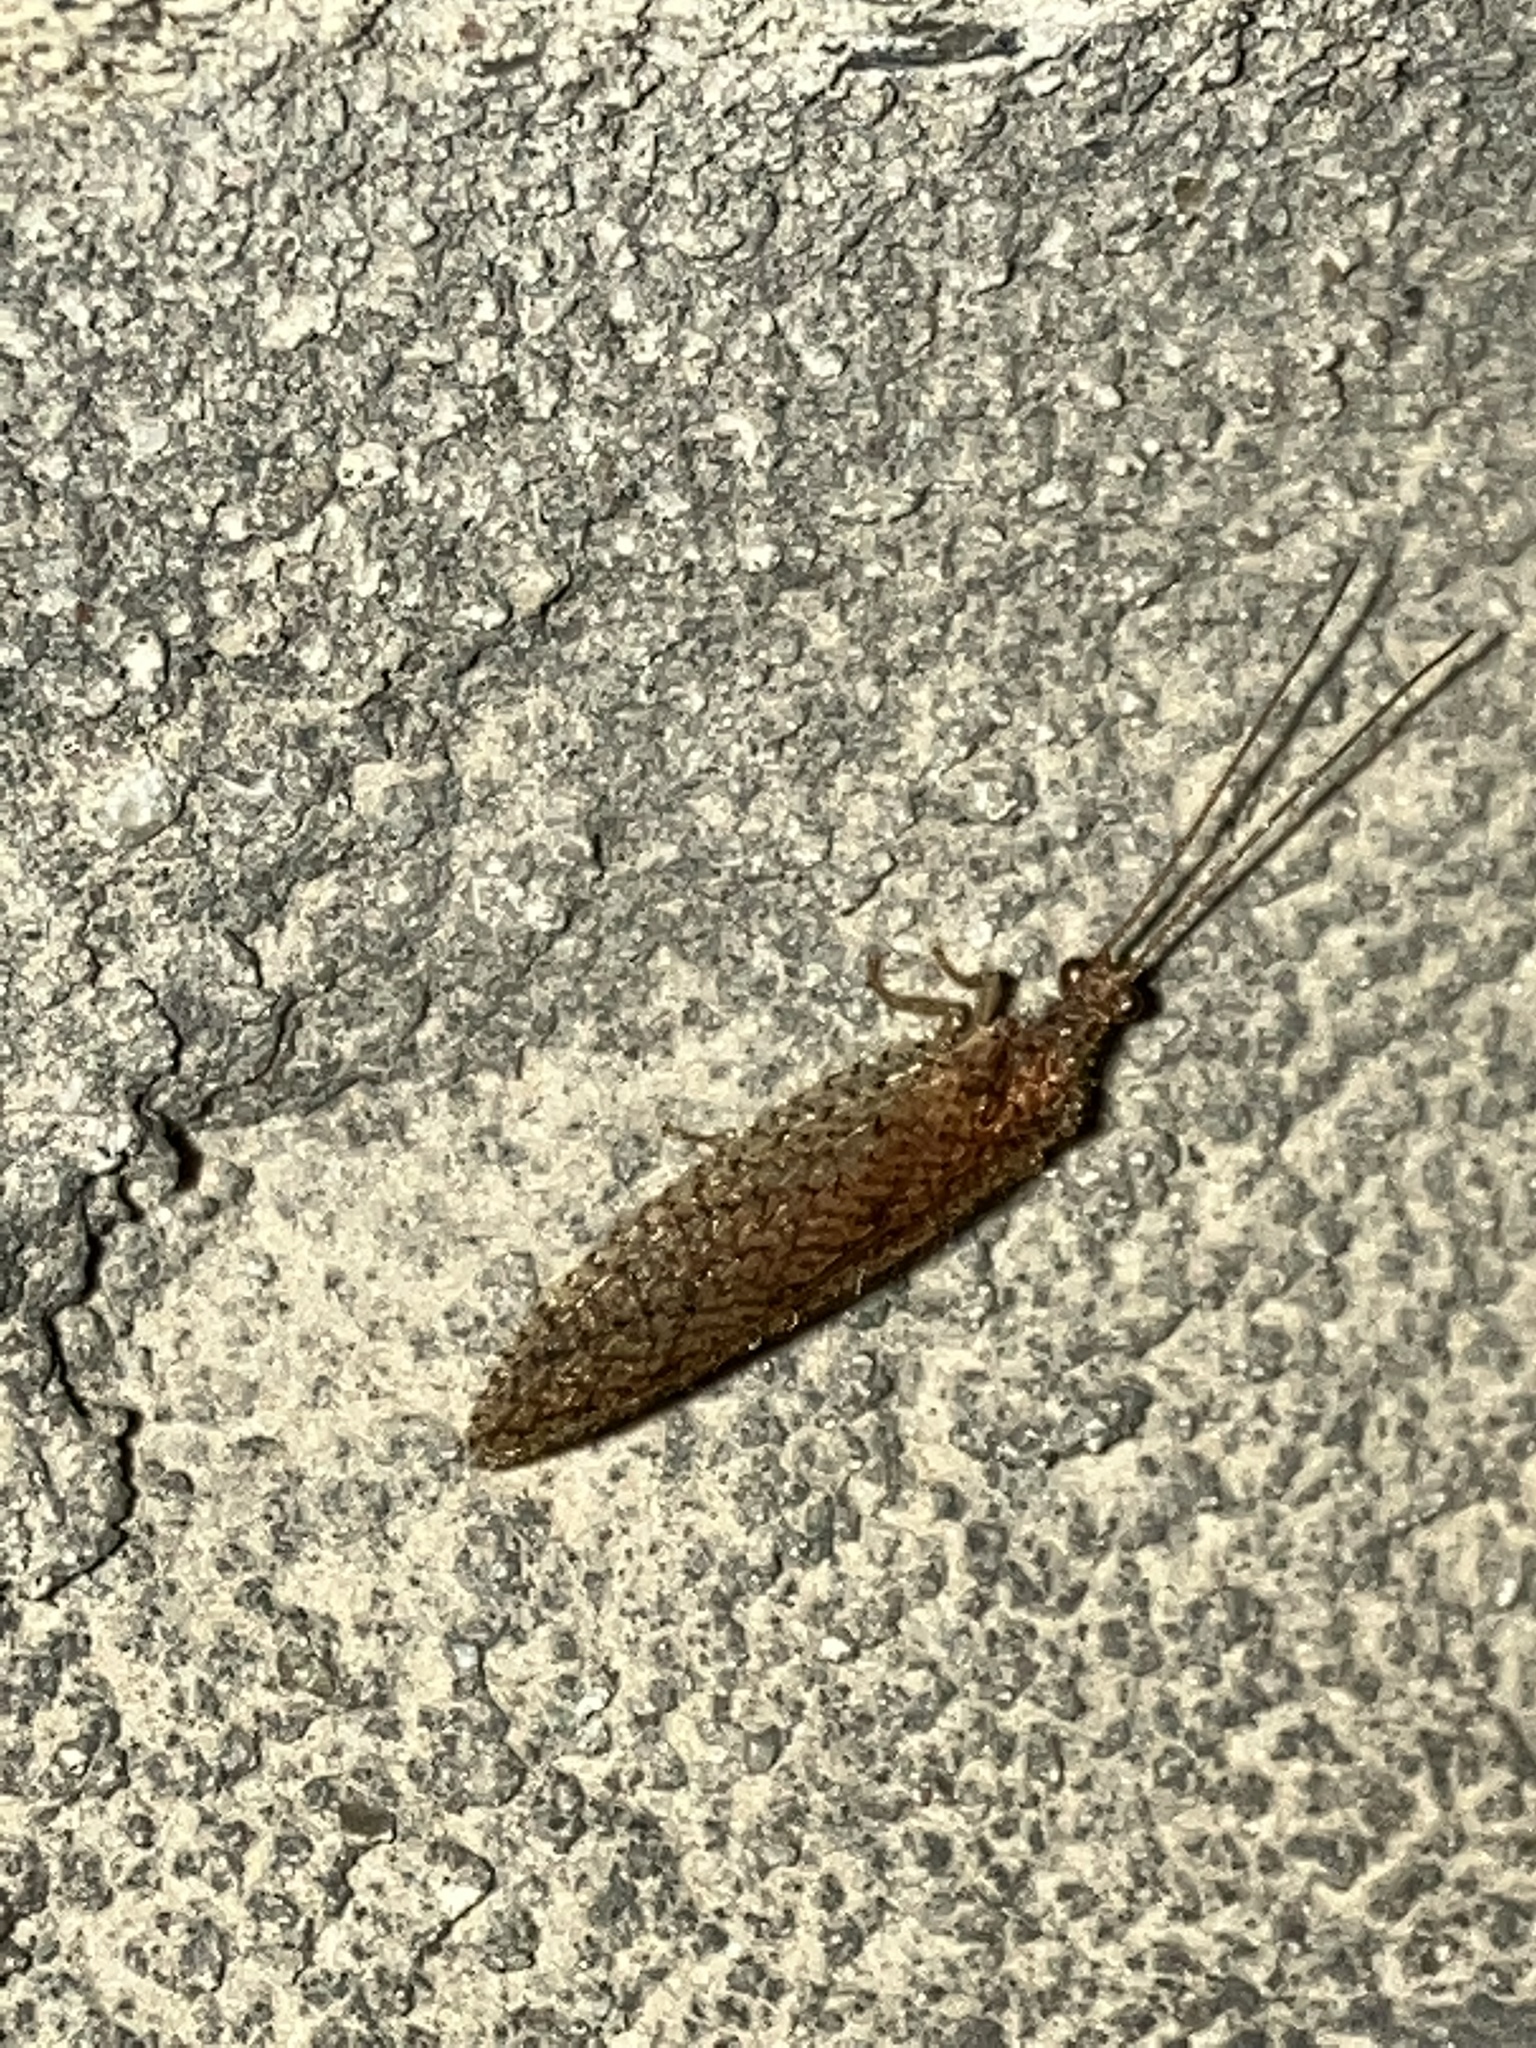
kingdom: Animalia
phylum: Arthropoda
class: Insecta
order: Neuroptera
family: Hemerobiidae
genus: Micromus
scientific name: Micromus posticus
